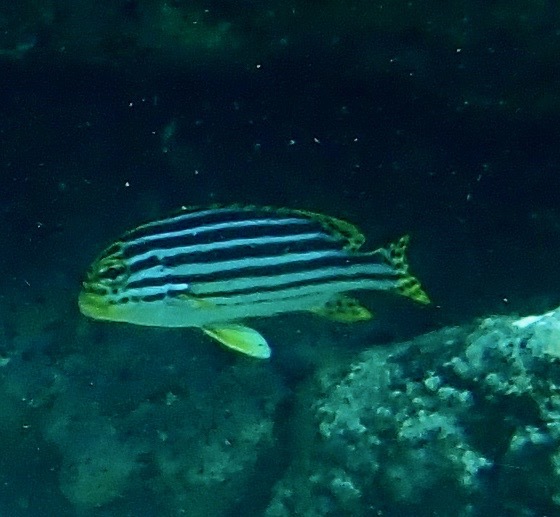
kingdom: Animalia
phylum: Chordata
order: Perciformes
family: Haemulidae
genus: Plectorhinchus
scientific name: Plectorhinchus vittatus
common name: Oriental sweetlips
